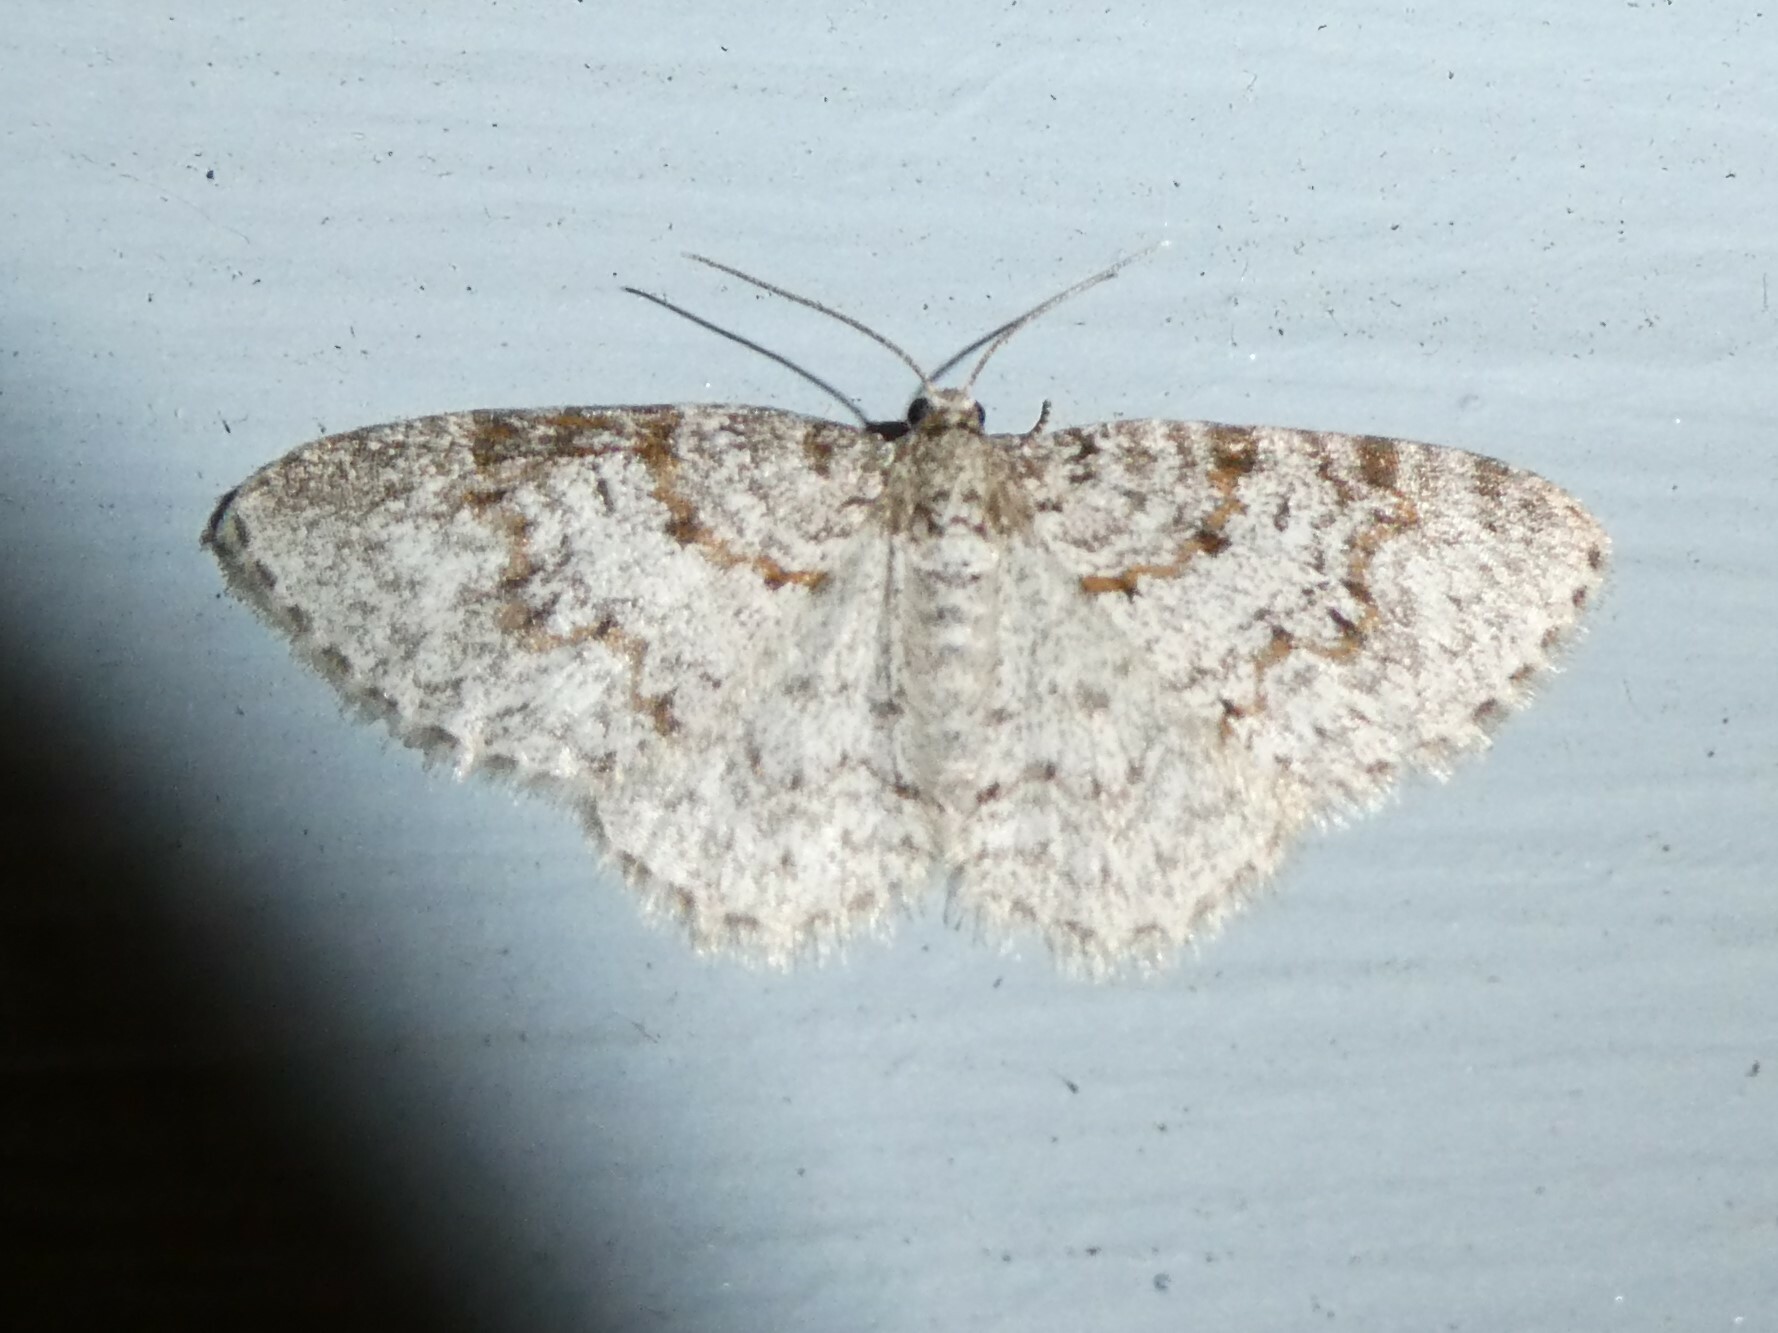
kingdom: Animalia
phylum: Arthropoda
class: Insecta
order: Lepidoptera
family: Geometridae
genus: Hydrelia
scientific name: Hydrelia inornata
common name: Unadorned carpet moth
